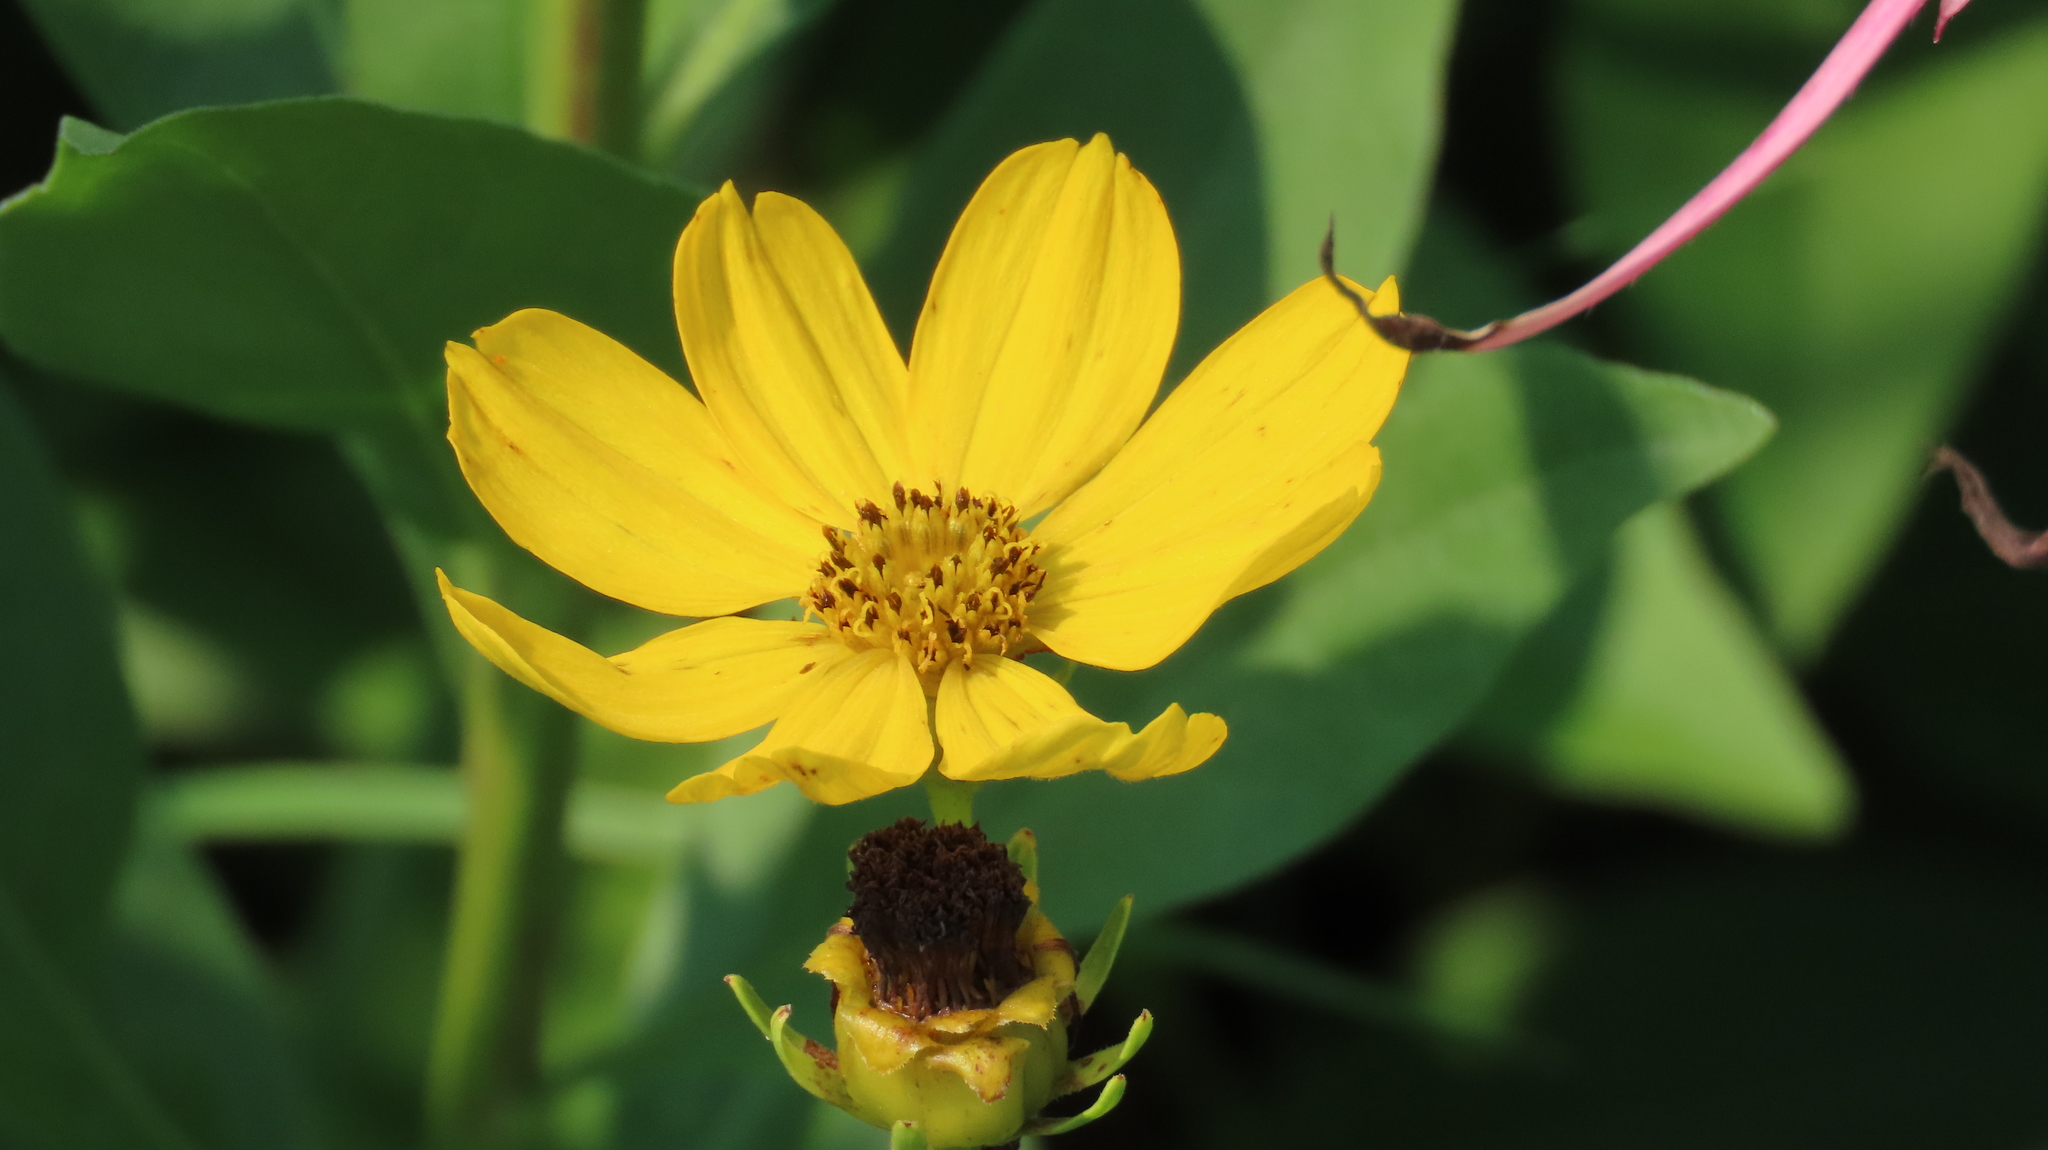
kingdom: Plantae
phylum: Tracheophyta
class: Magnoliopsida
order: Asterales
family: Asteraceae
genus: Coreopsis
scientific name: Coreopsis palmata
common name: Prairie coreopsis
